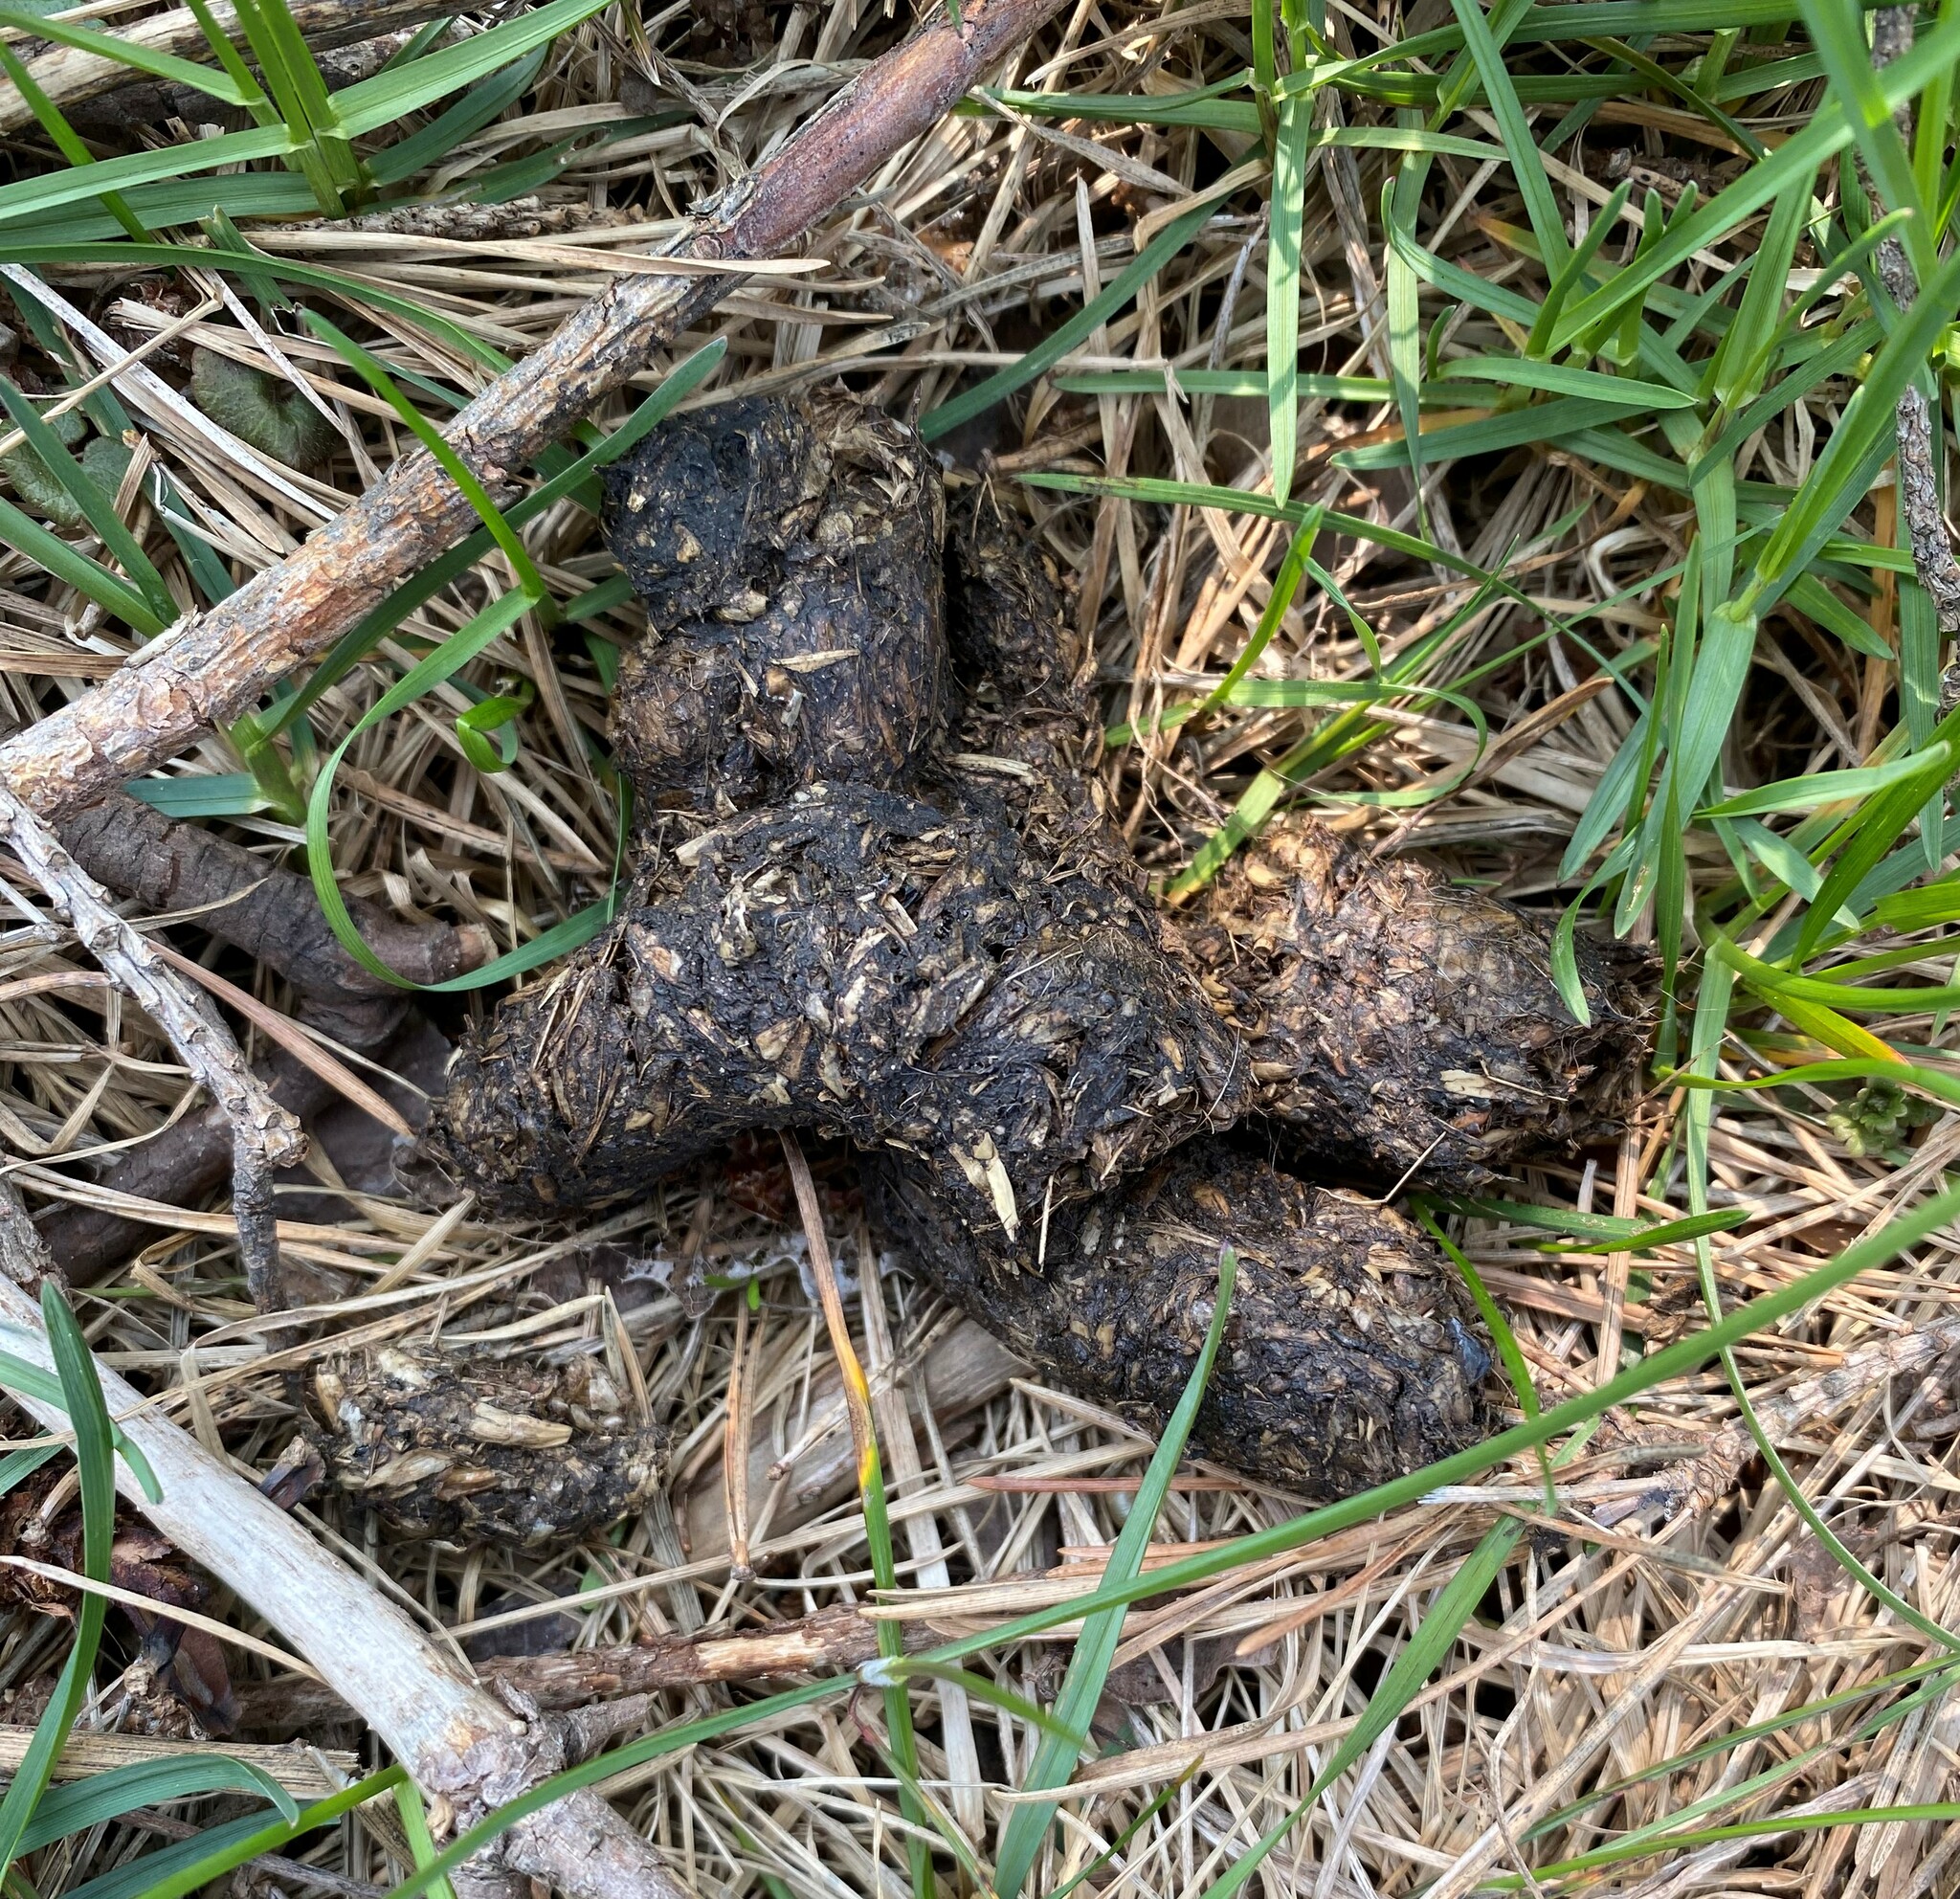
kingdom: Animalia
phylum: Chordata
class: Mammalia
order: Carnivora
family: Procyonidae
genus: Procyon
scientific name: Procyon lotor
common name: Raccoon
